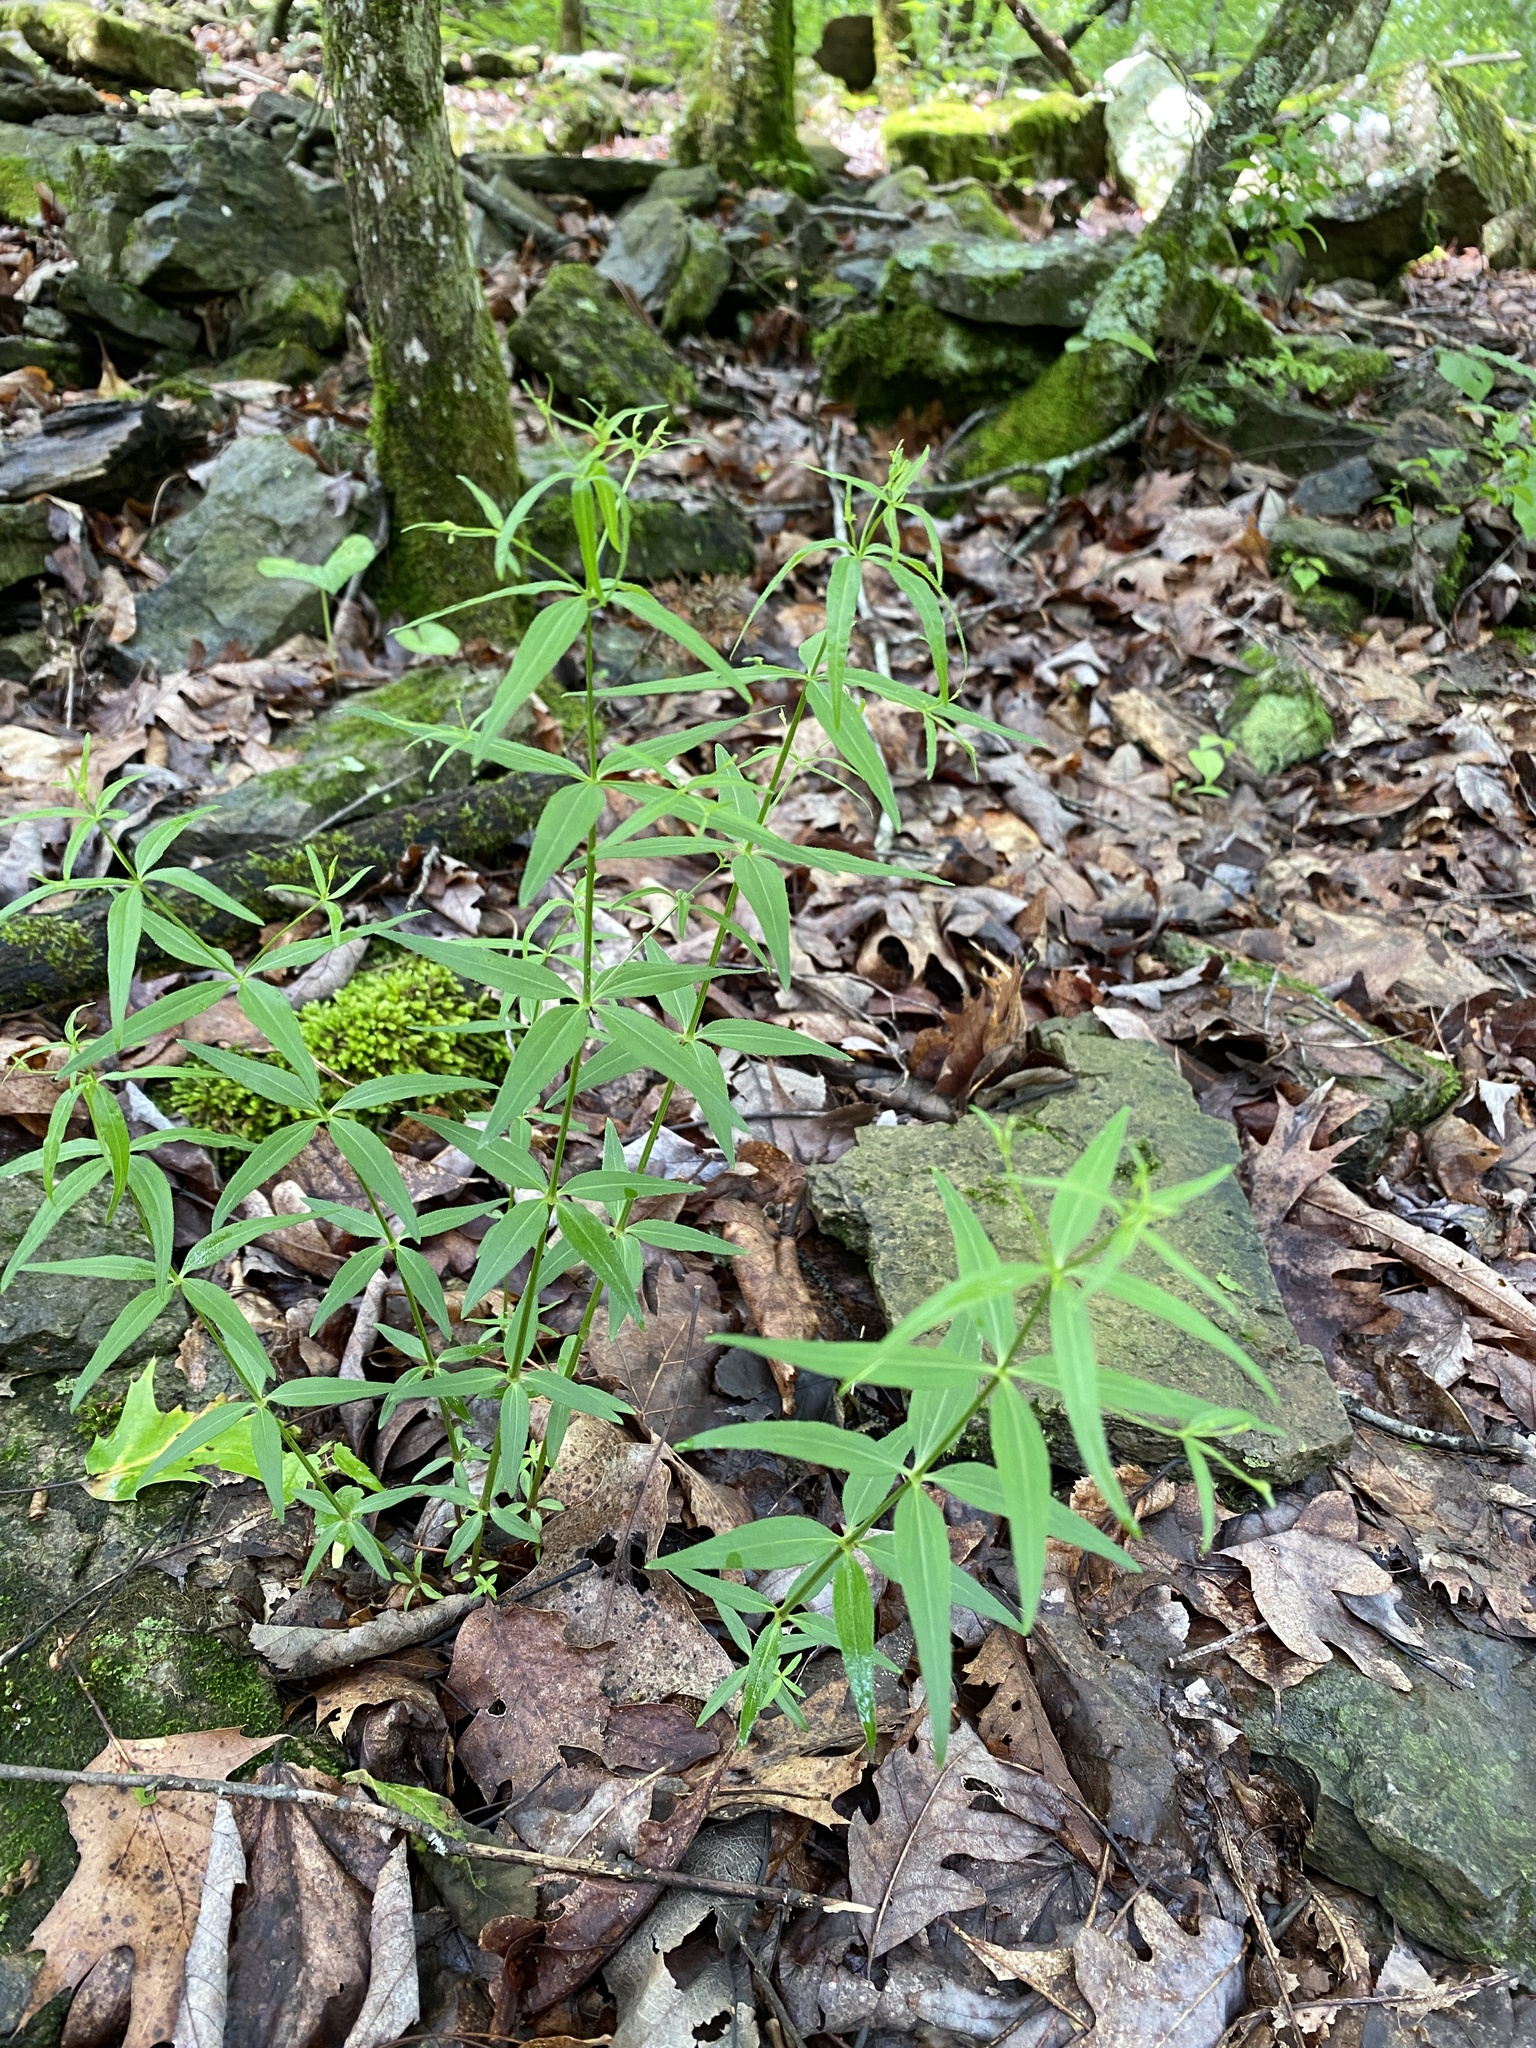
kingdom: Plantae
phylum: Tracheophyta
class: Magnoliopsida
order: Gentianales
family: Rubiaceae
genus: Galium
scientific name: Galium arkansanum
